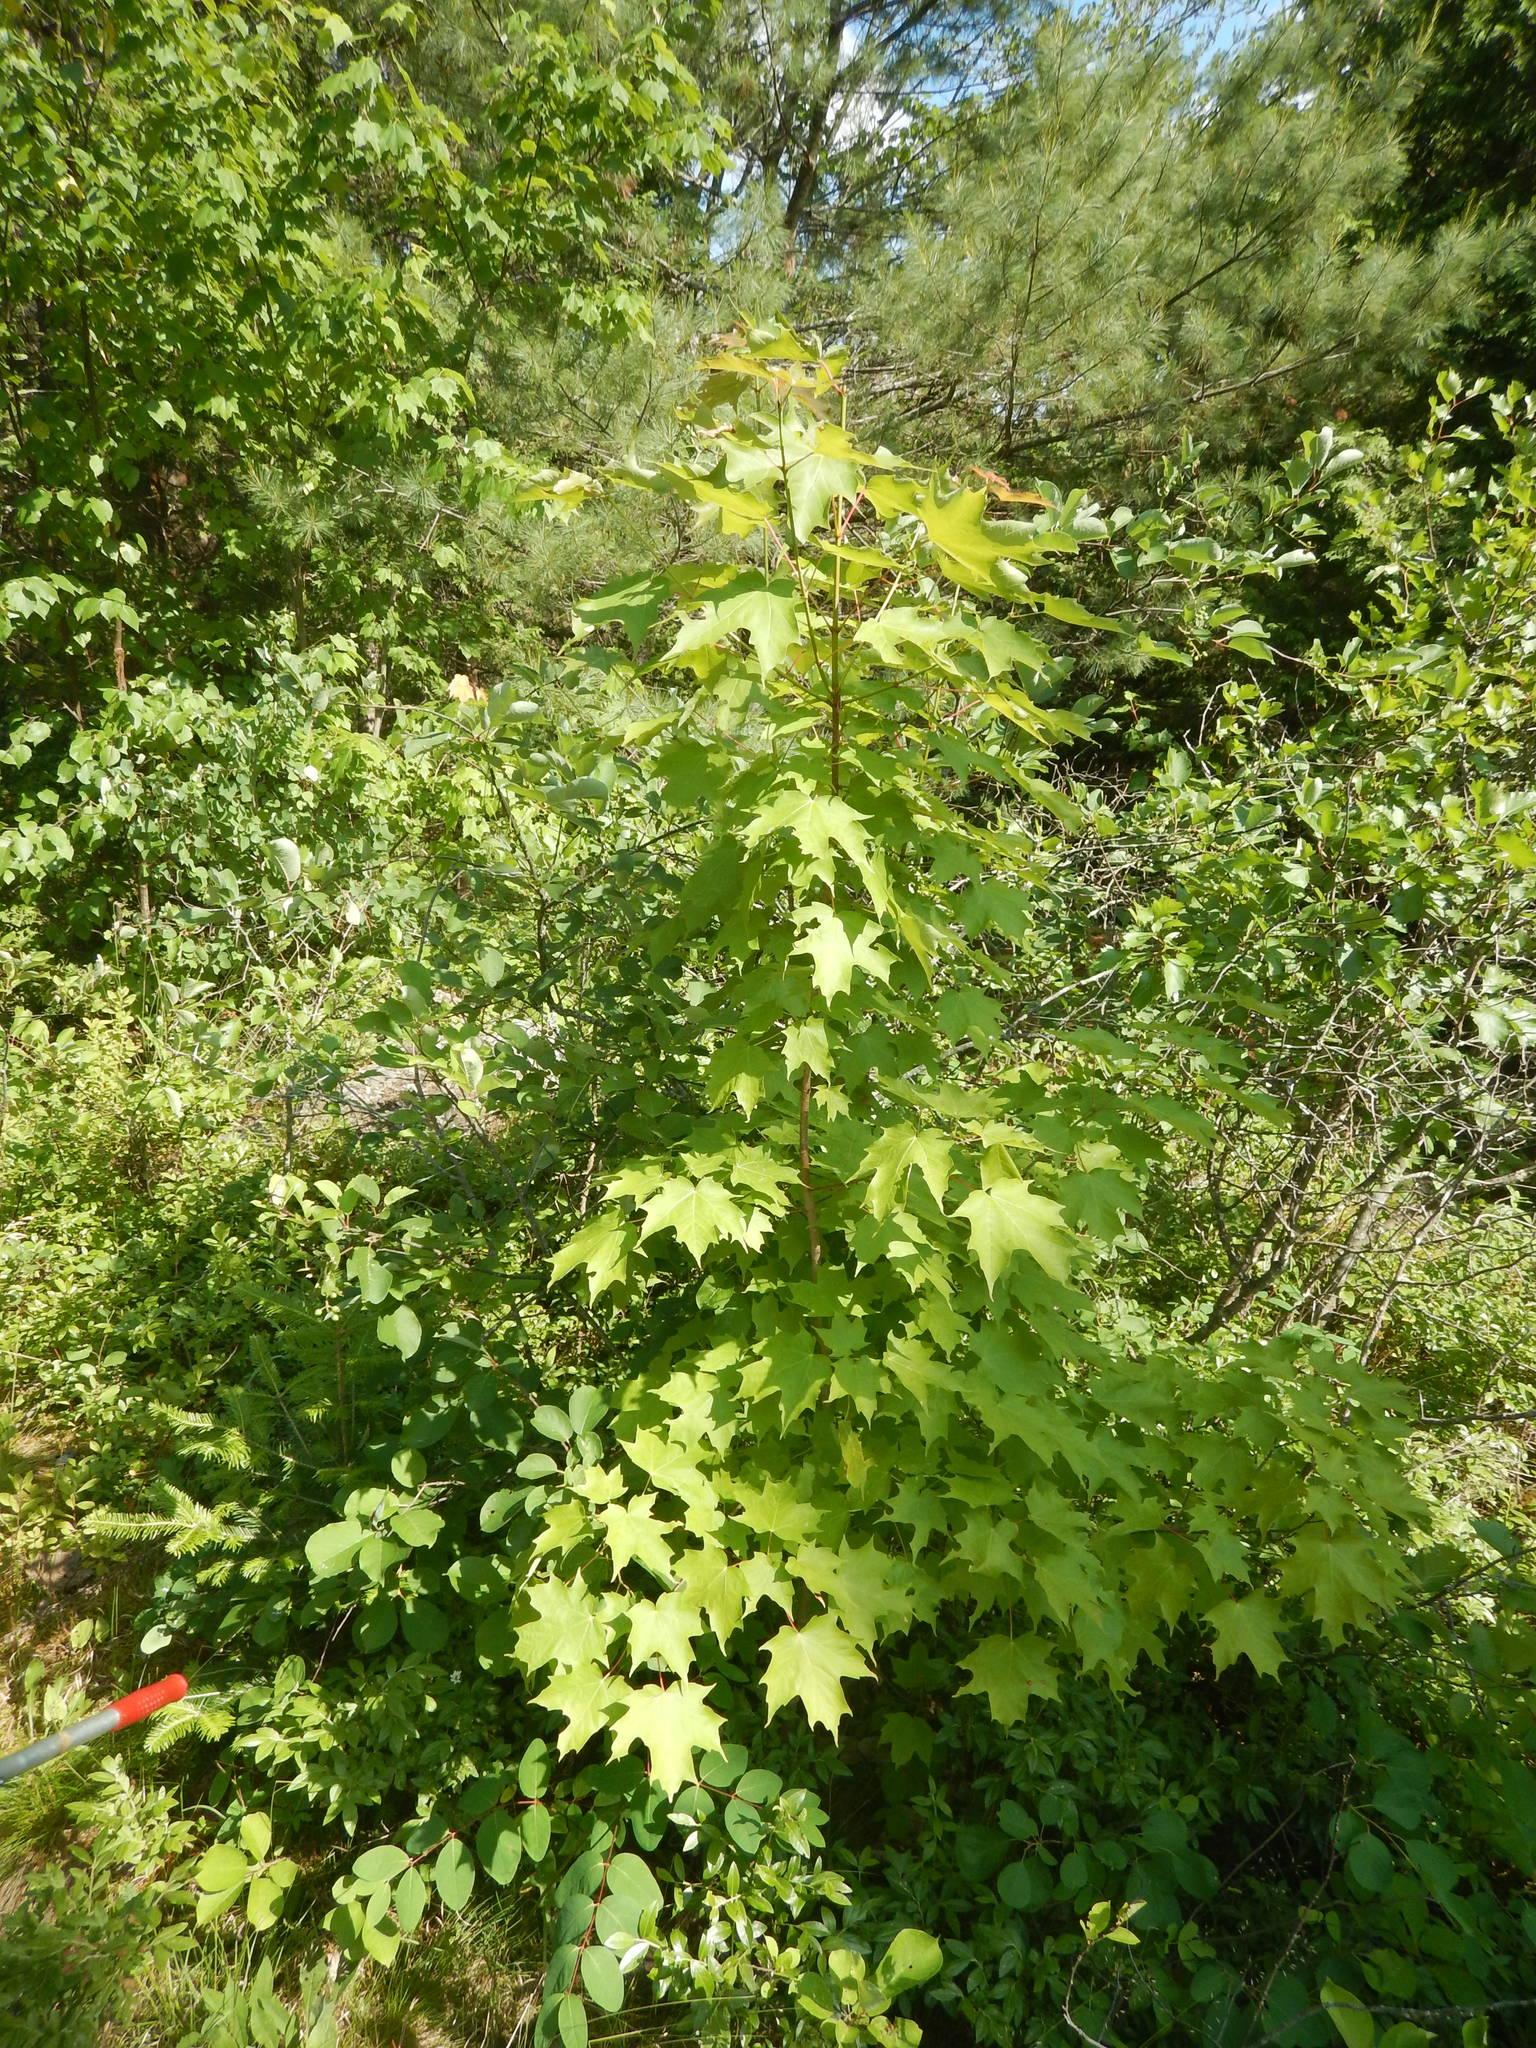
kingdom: Plantae
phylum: Tracheophyta
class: Magnoliopsida
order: Sapindales
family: Sapindaceae
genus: Acer
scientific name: Acer saccharum
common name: Sugar maple
